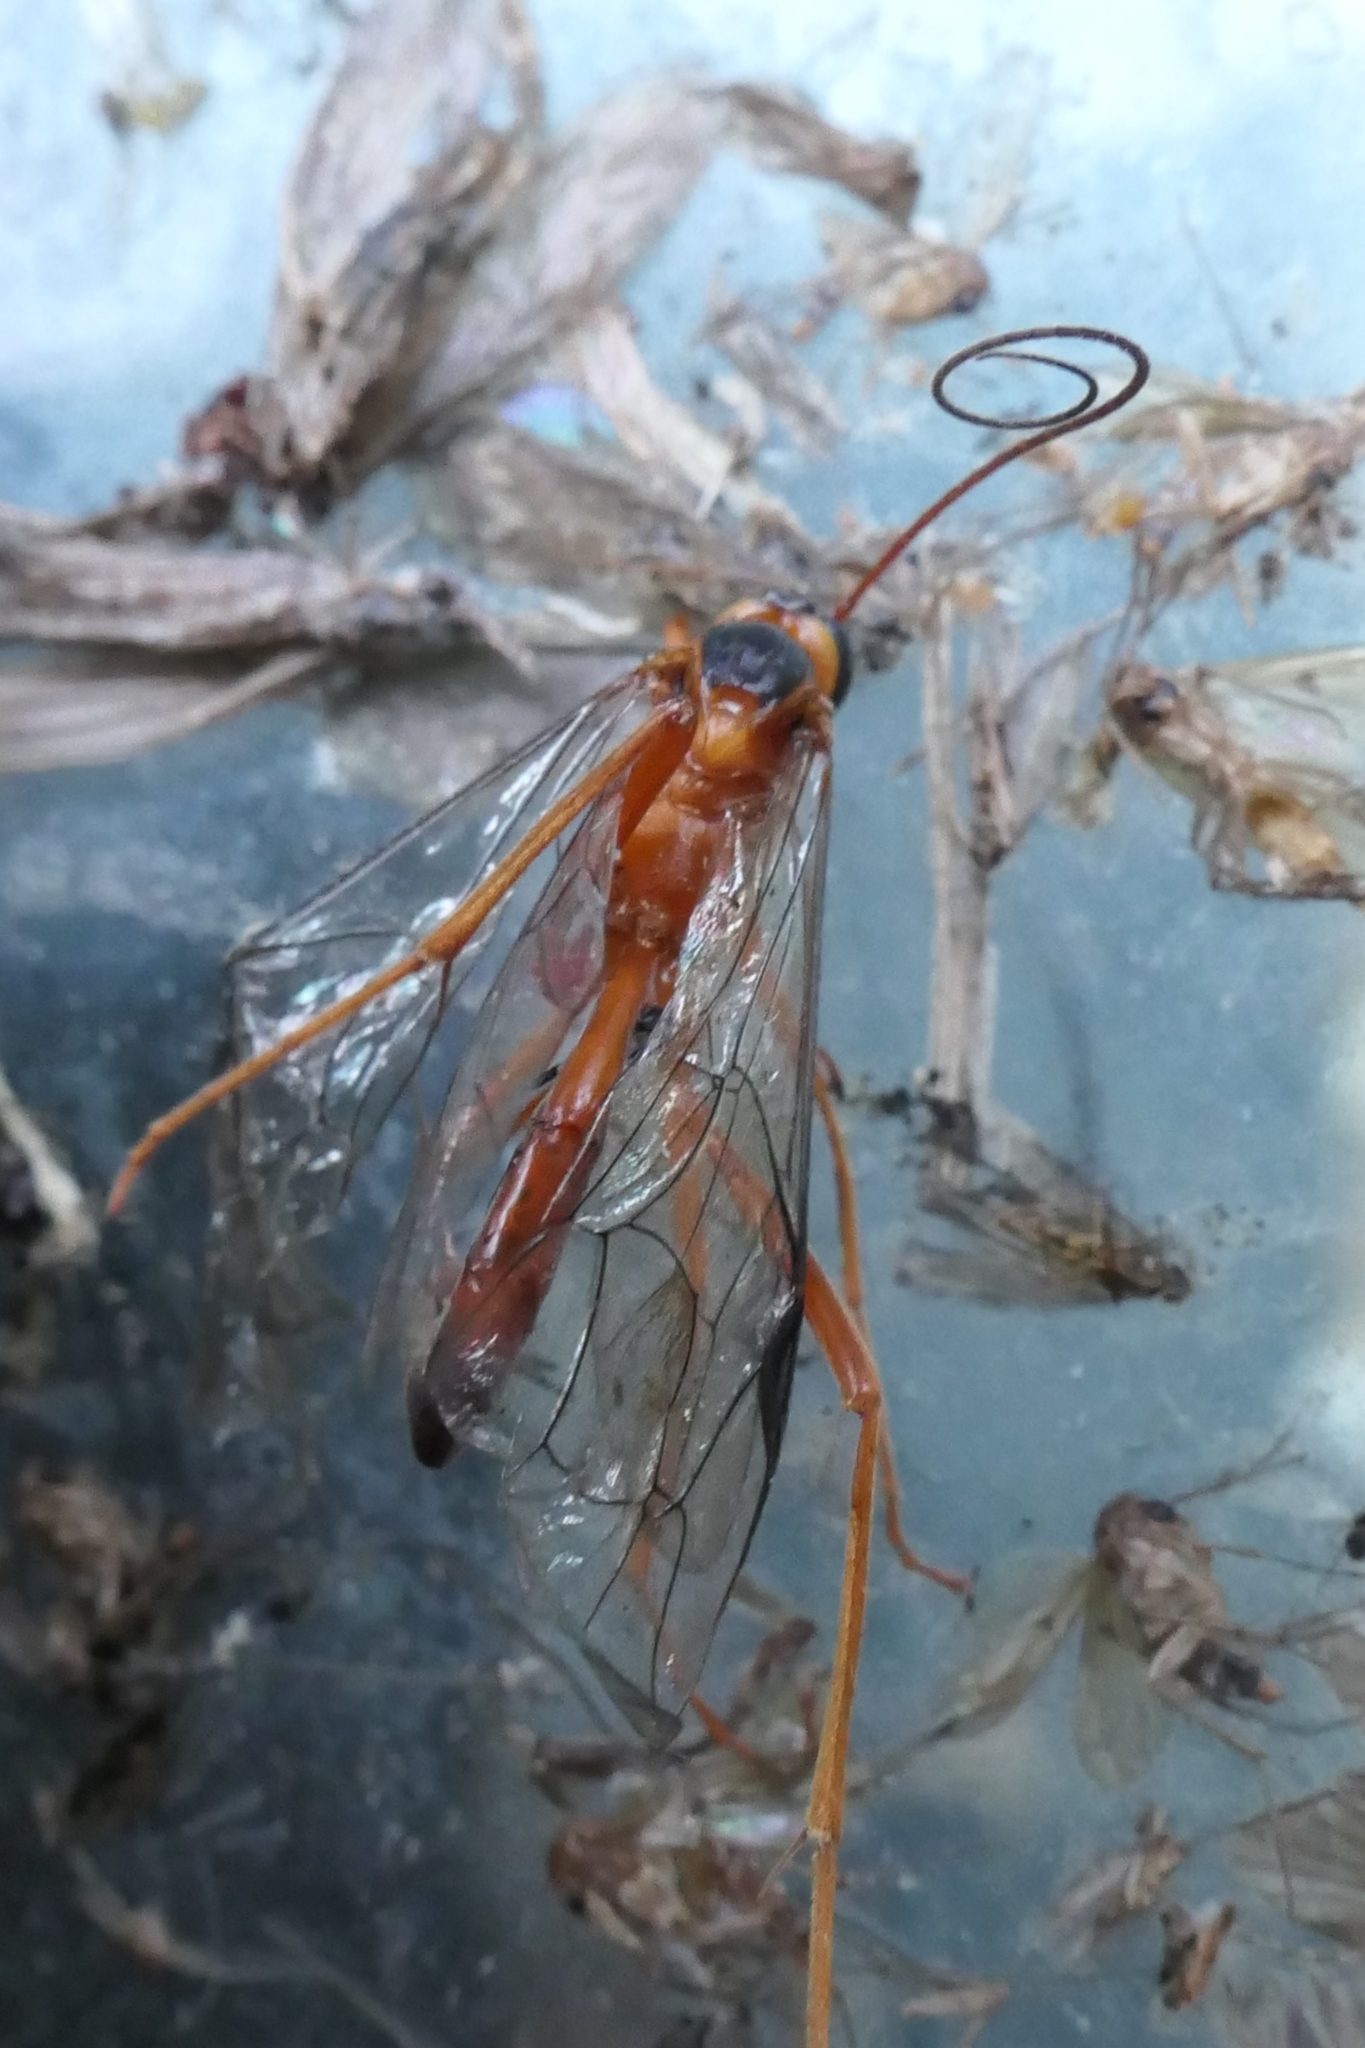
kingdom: Animalia
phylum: Arthropoda
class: Insecta
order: Hymenoptera
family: Ichneumonidae
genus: Netelia
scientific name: Netelia ephippiata
